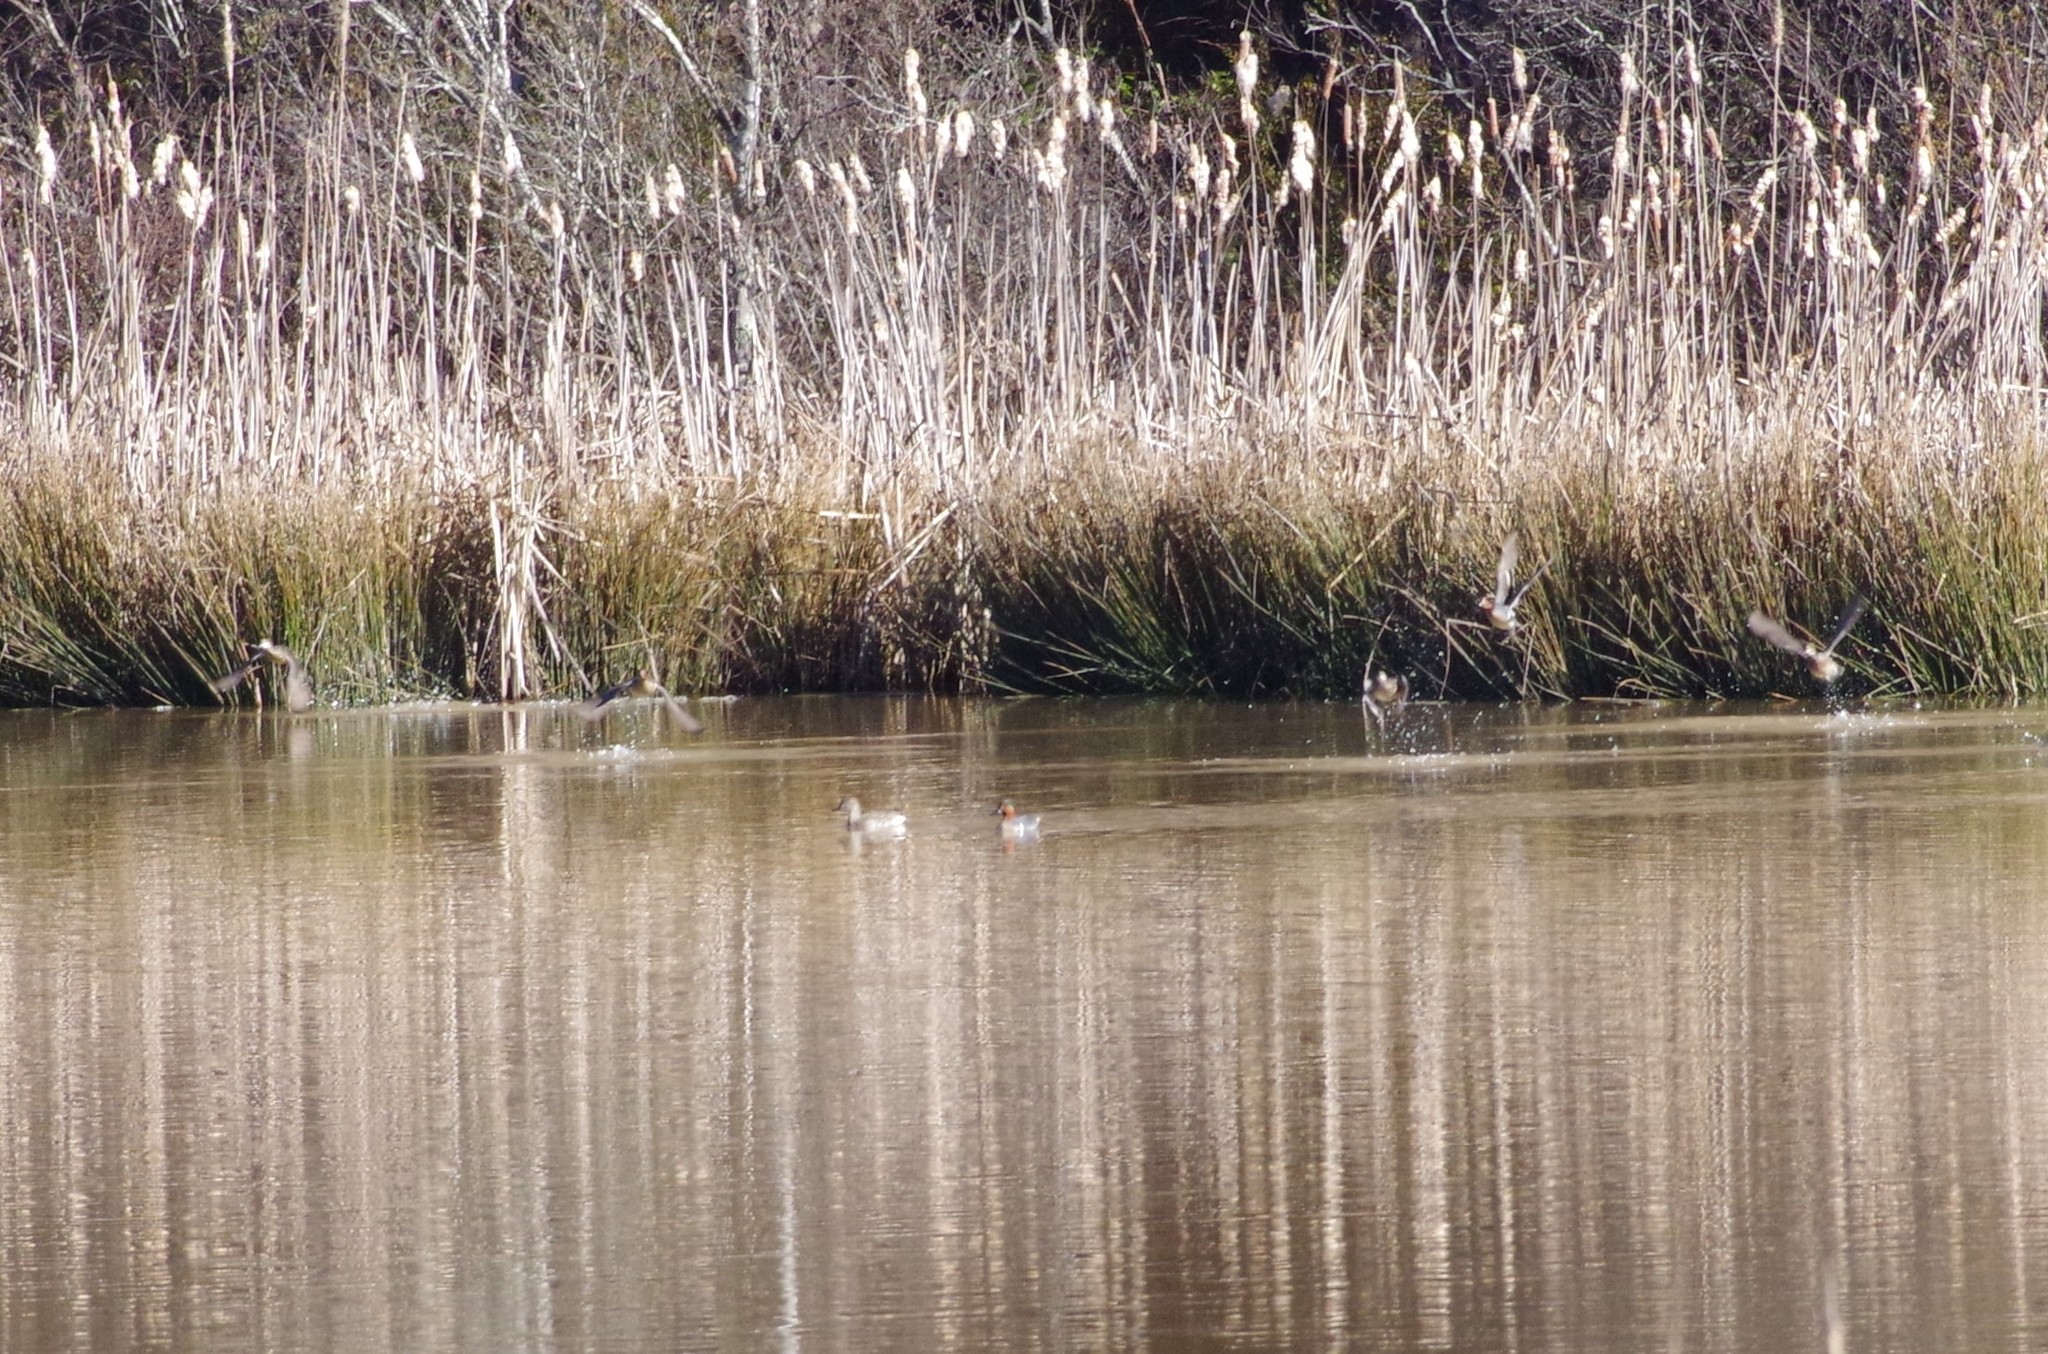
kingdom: Animalia
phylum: Chordata
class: Aves
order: Anseriformes
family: Anatidae
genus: Anas
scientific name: Anas carolinensis
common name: Green-winged teal
